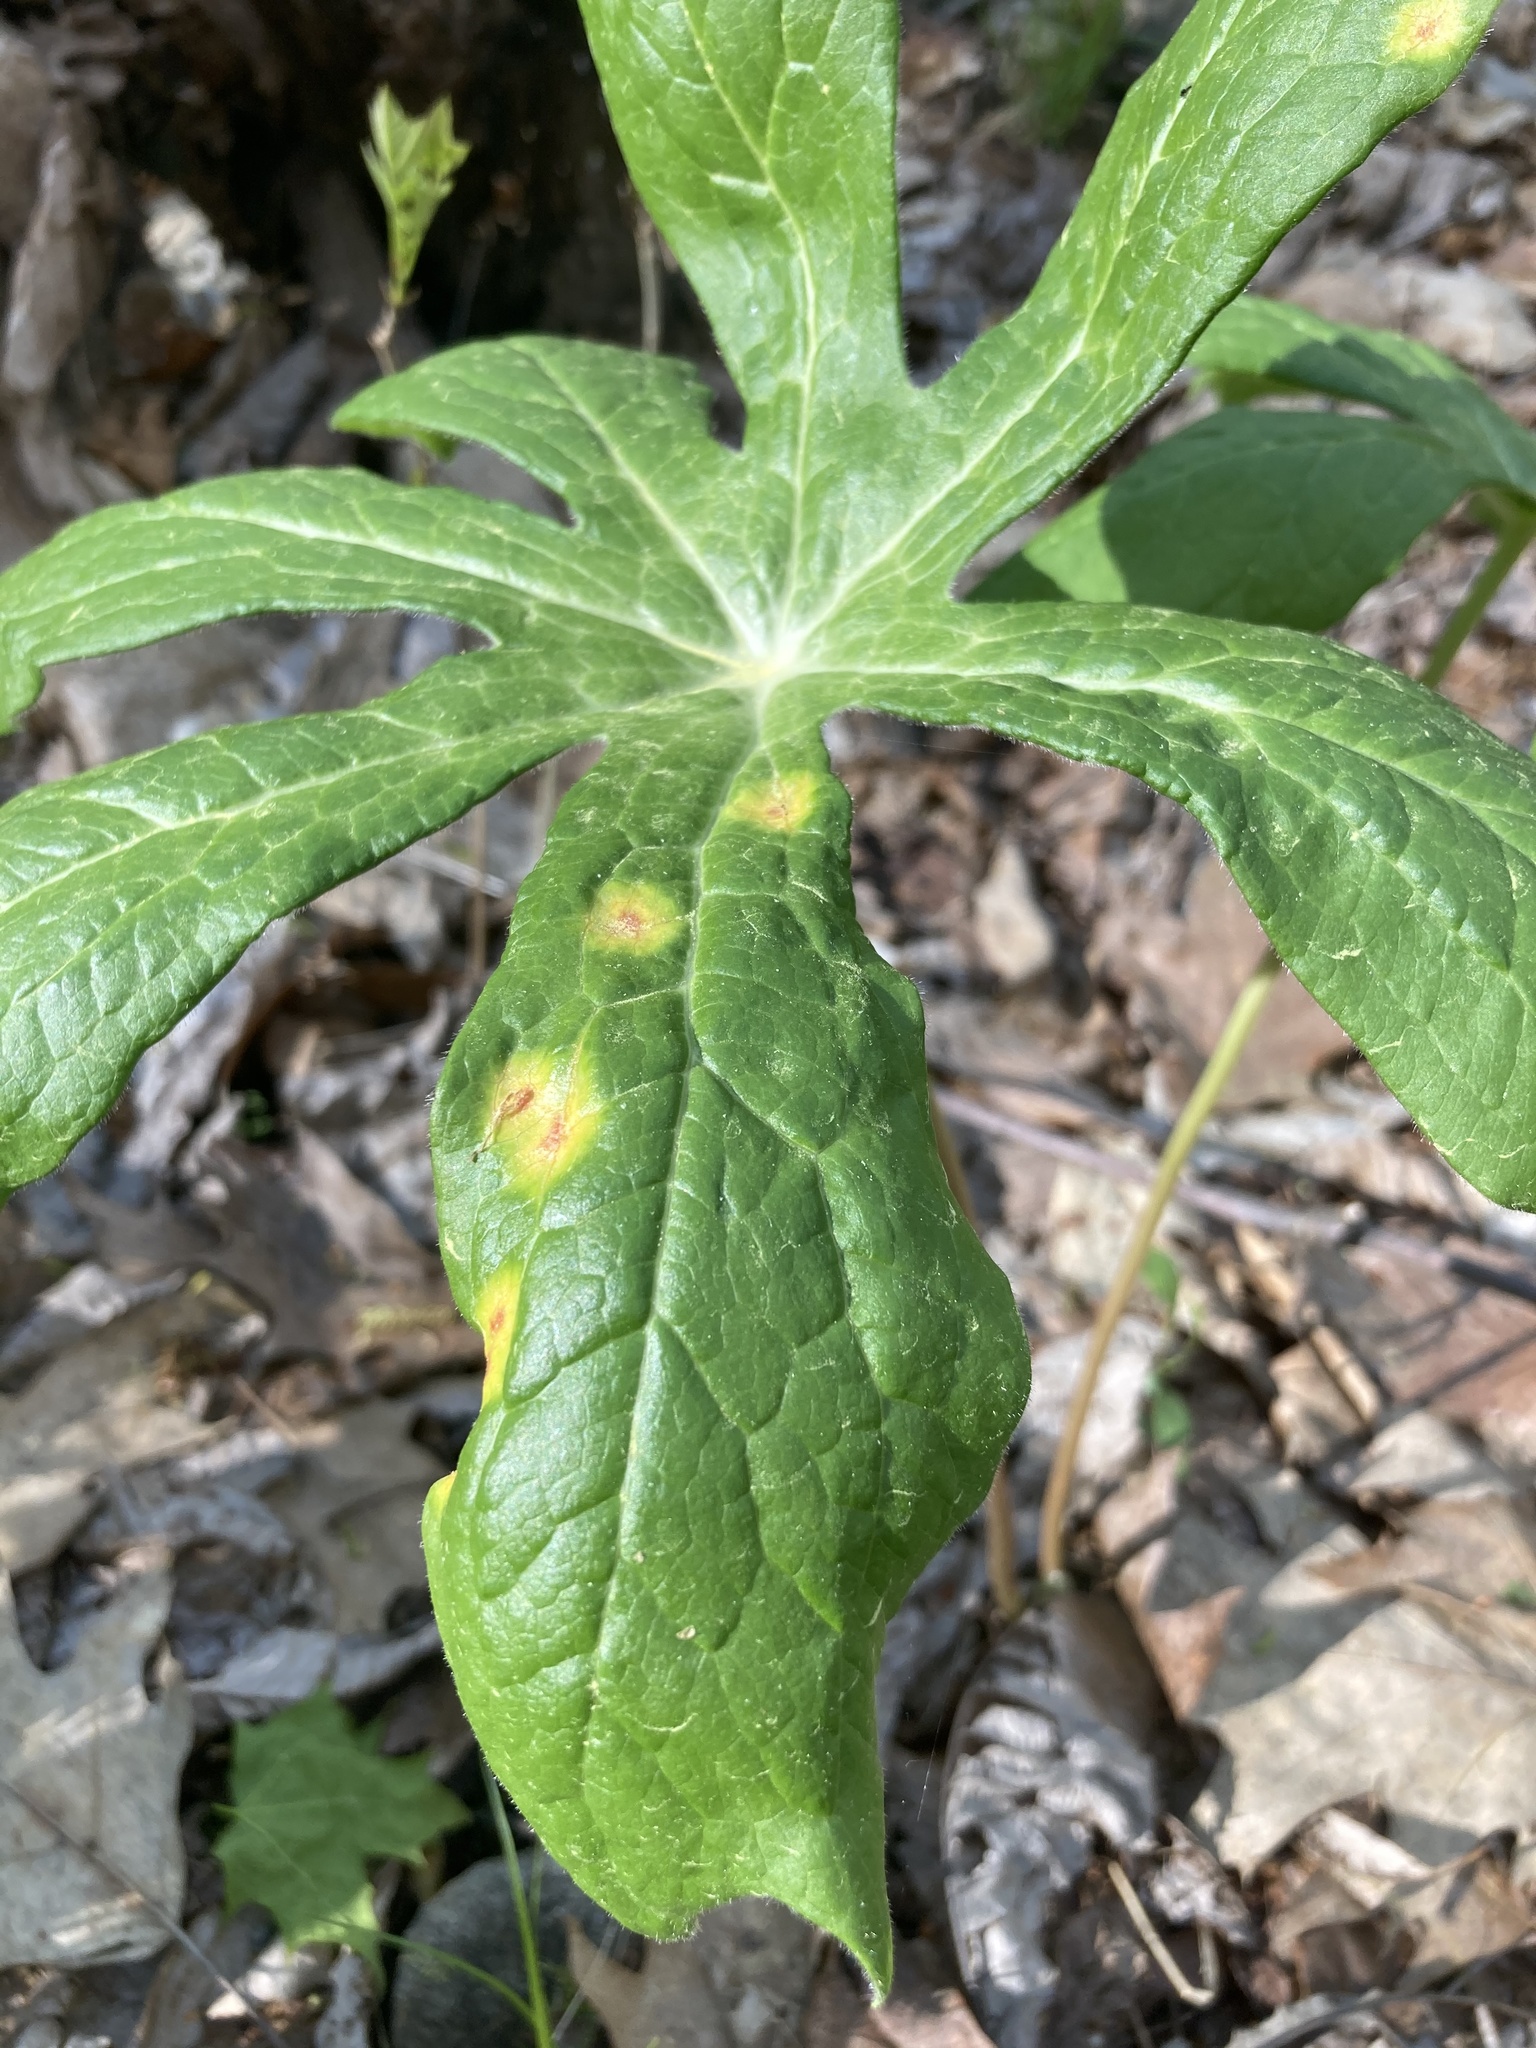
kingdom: Fungi
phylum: Basidiomycota
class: Pucciniomycetes
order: Pucciniales
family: Pucciniaceae
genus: Puccinia
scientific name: Puccinia podophylli
